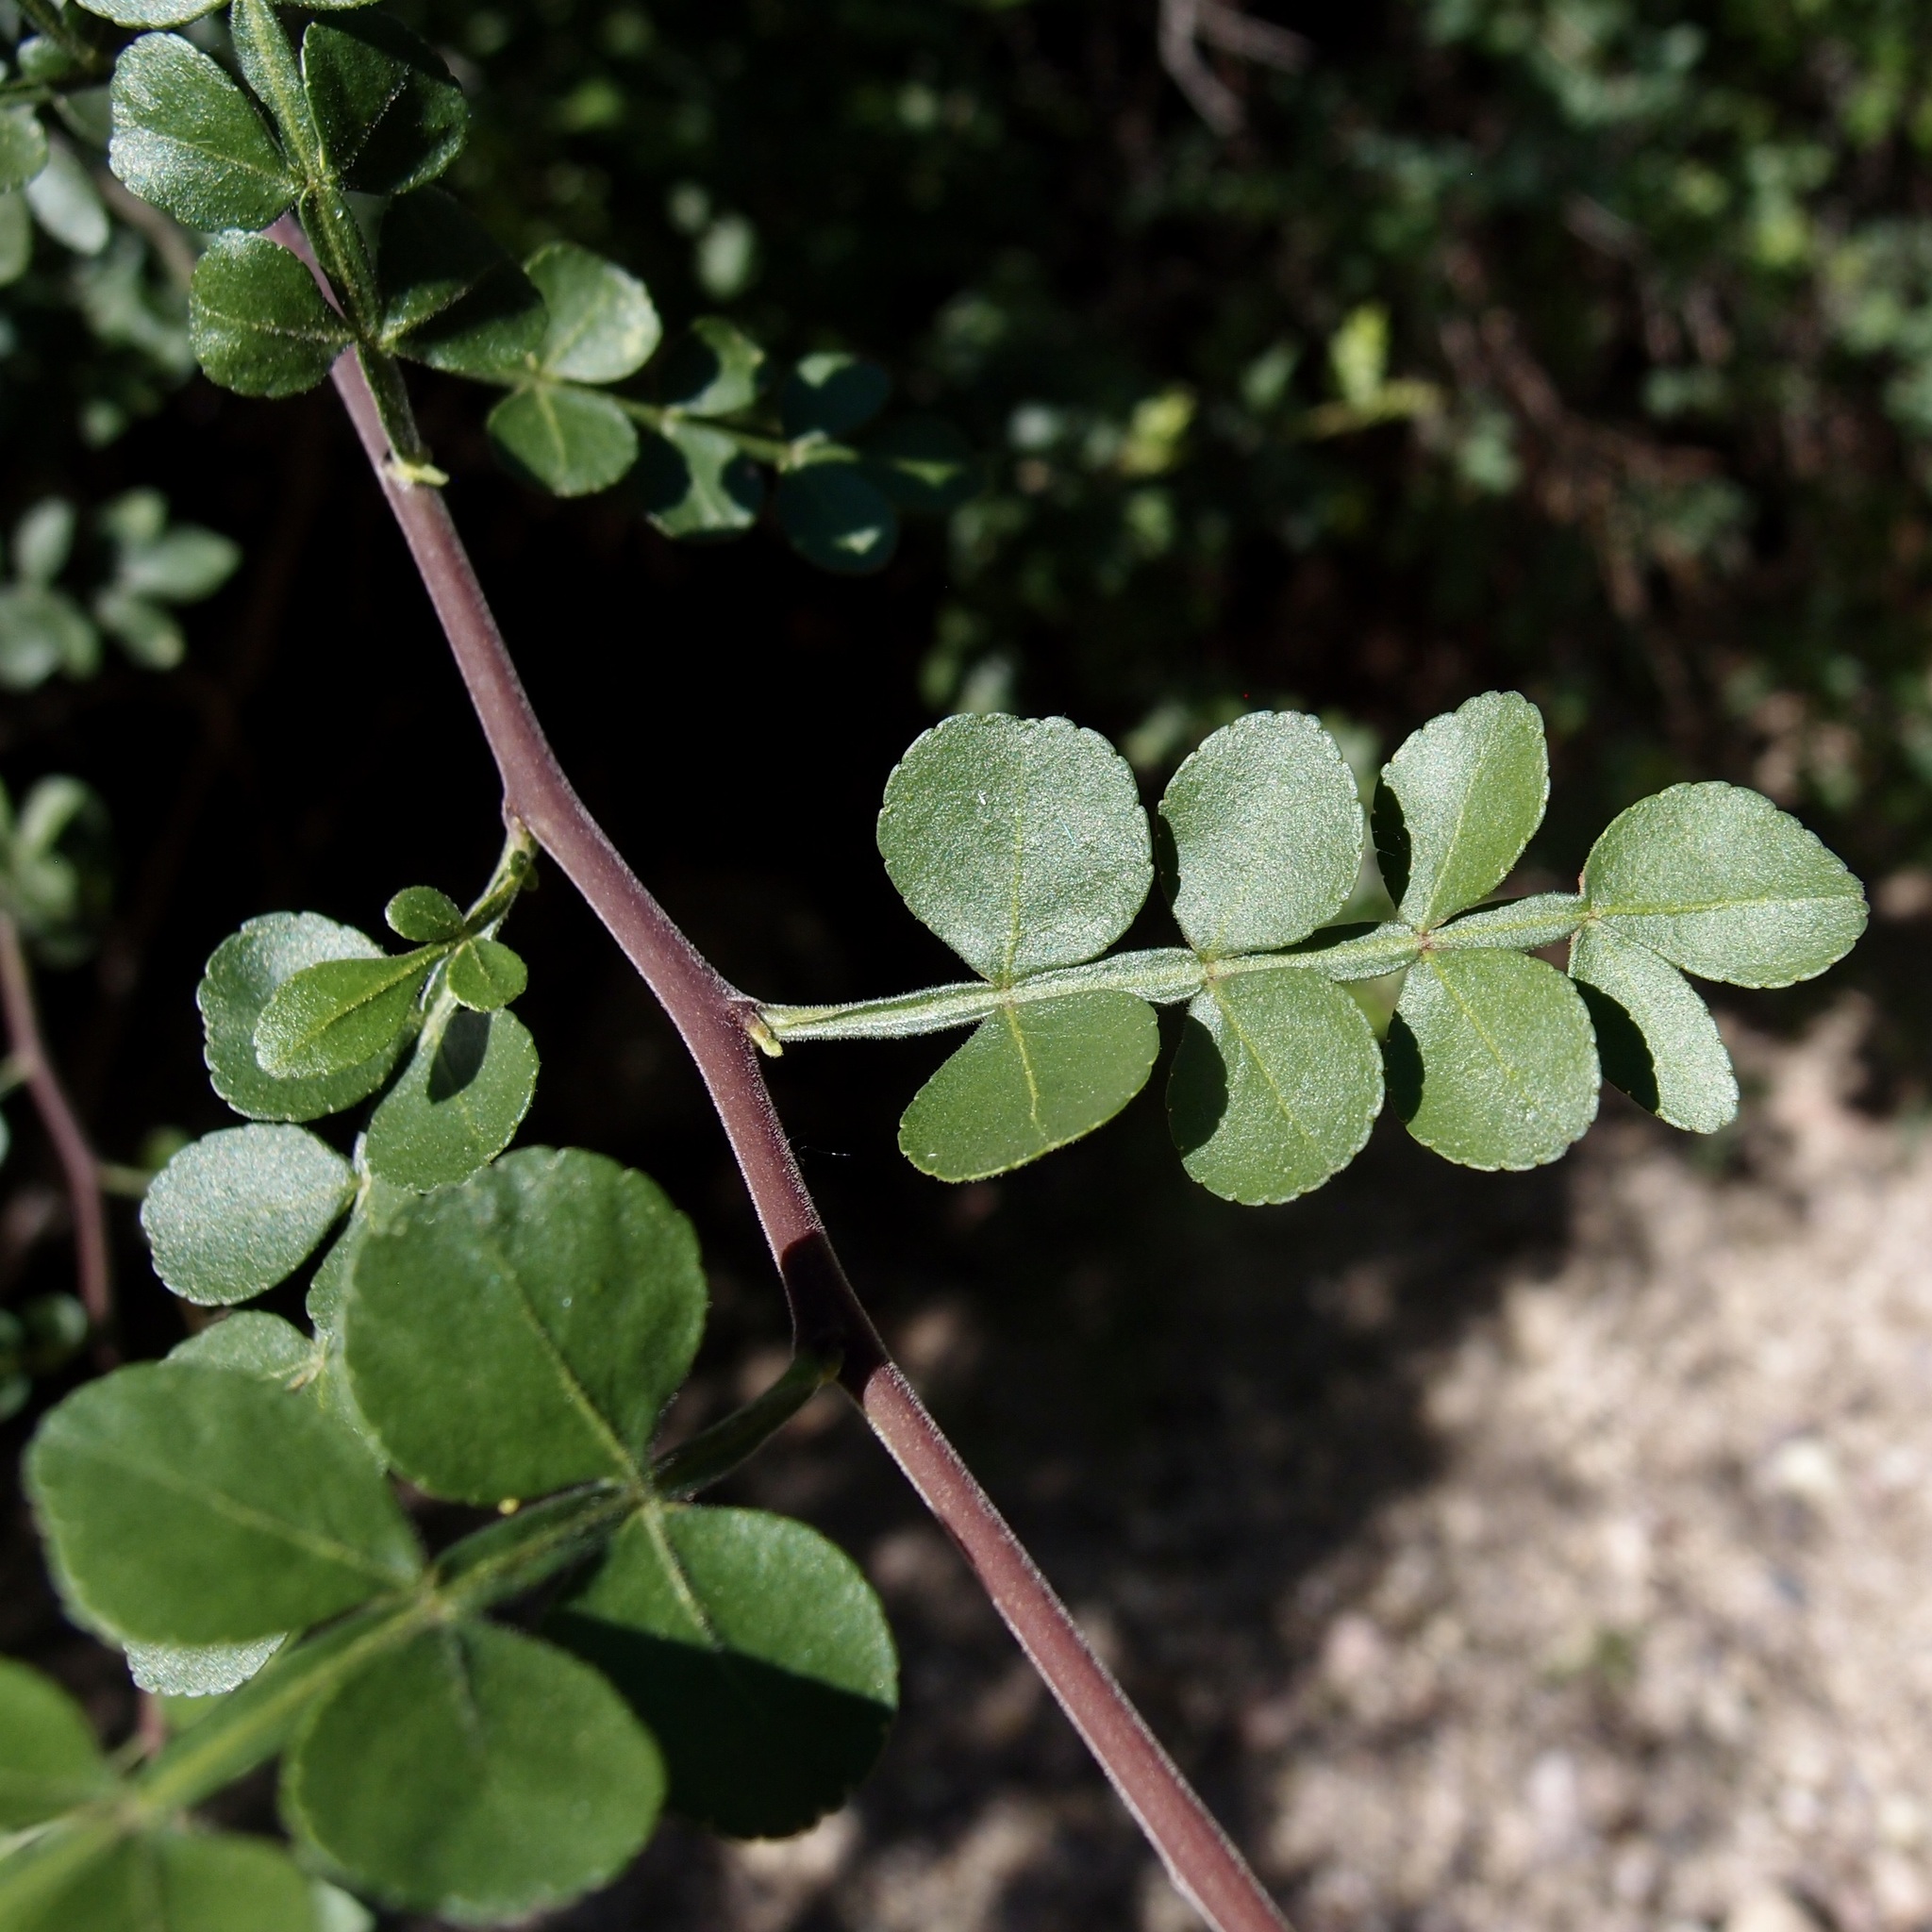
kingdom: Plantae
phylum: Tracheophyta
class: Magnoliopsida
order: Sapindales
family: Rutaceae
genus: Zanthoxylum
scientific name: Zanthoxylum fagara
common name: Lime prickly-ash
